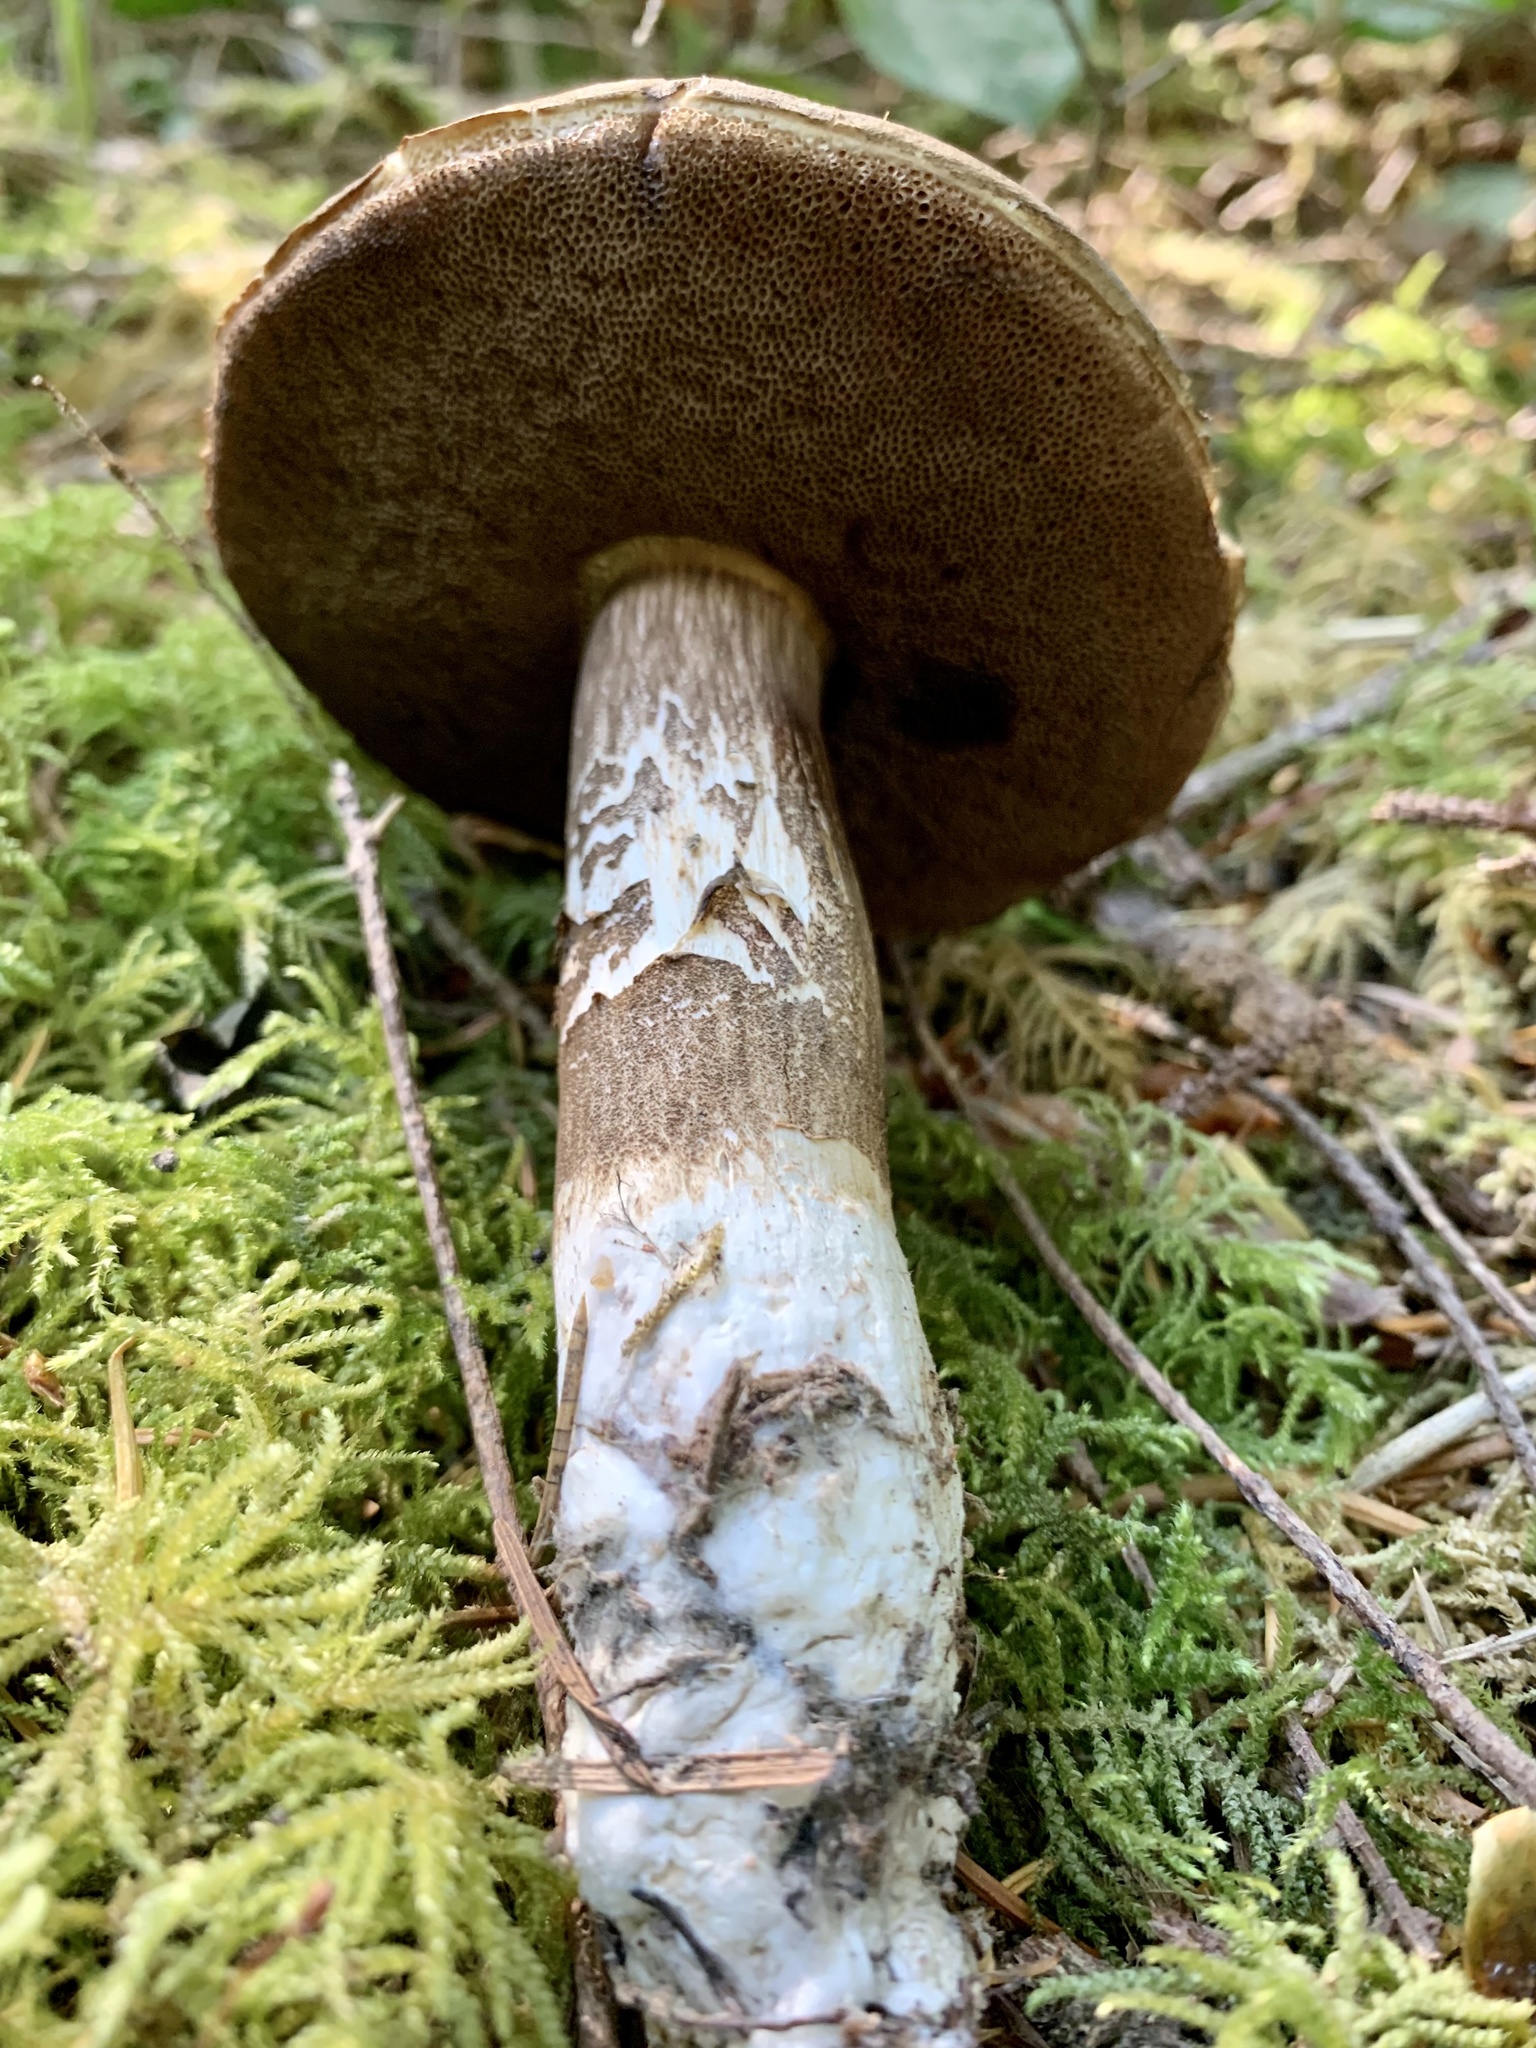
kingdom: Fungi
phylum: Basidiomycota
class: Agaricomycetes
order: Boletales
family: Boletaceae
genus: Porphyrellus
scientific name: Porphyrellus porphyrosporus
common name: Dusky bolete
